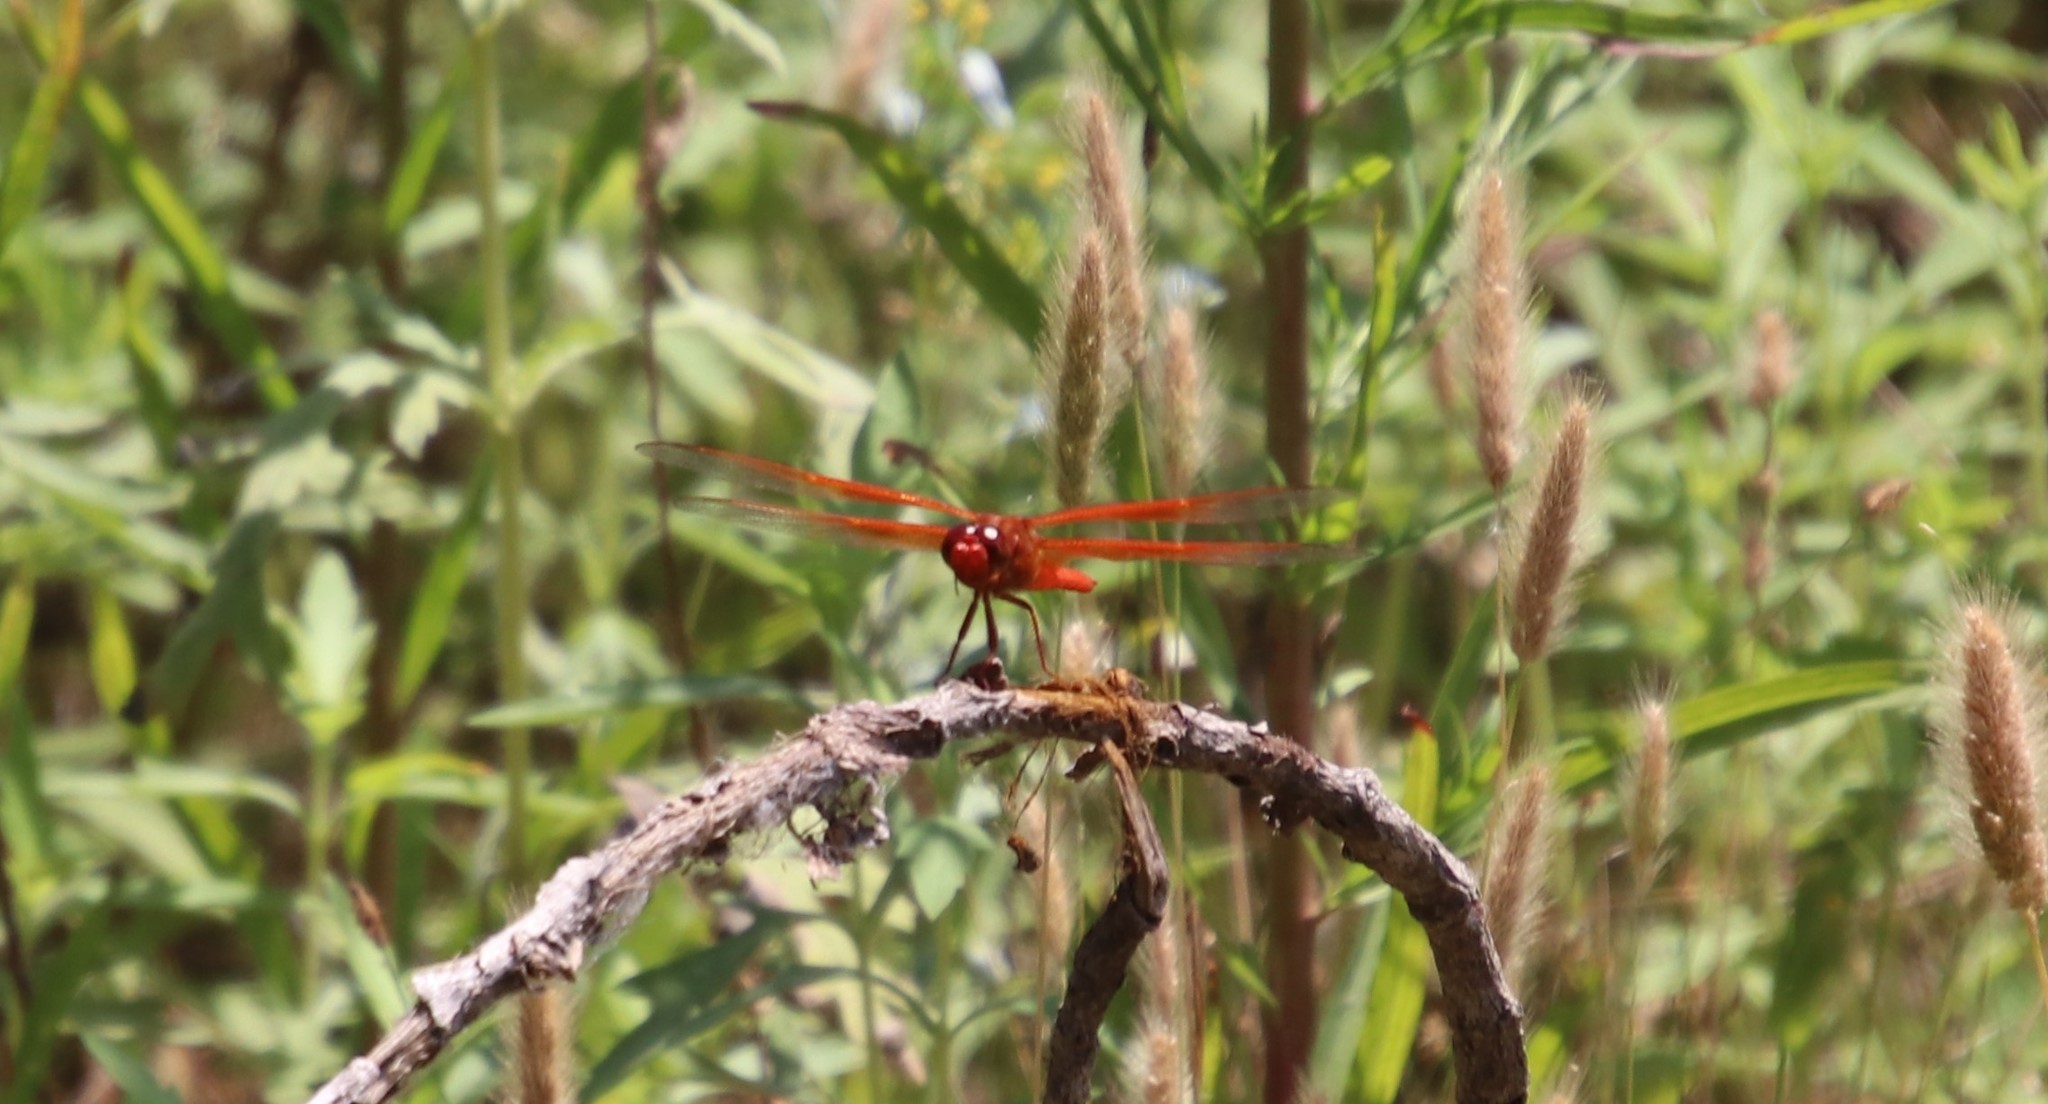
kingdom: Animalia
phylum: Arthropoda
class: Insecta
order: Odonata
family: Libellulidae
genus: Libellula
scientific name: Libellula saturata
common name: Flame skimmer
